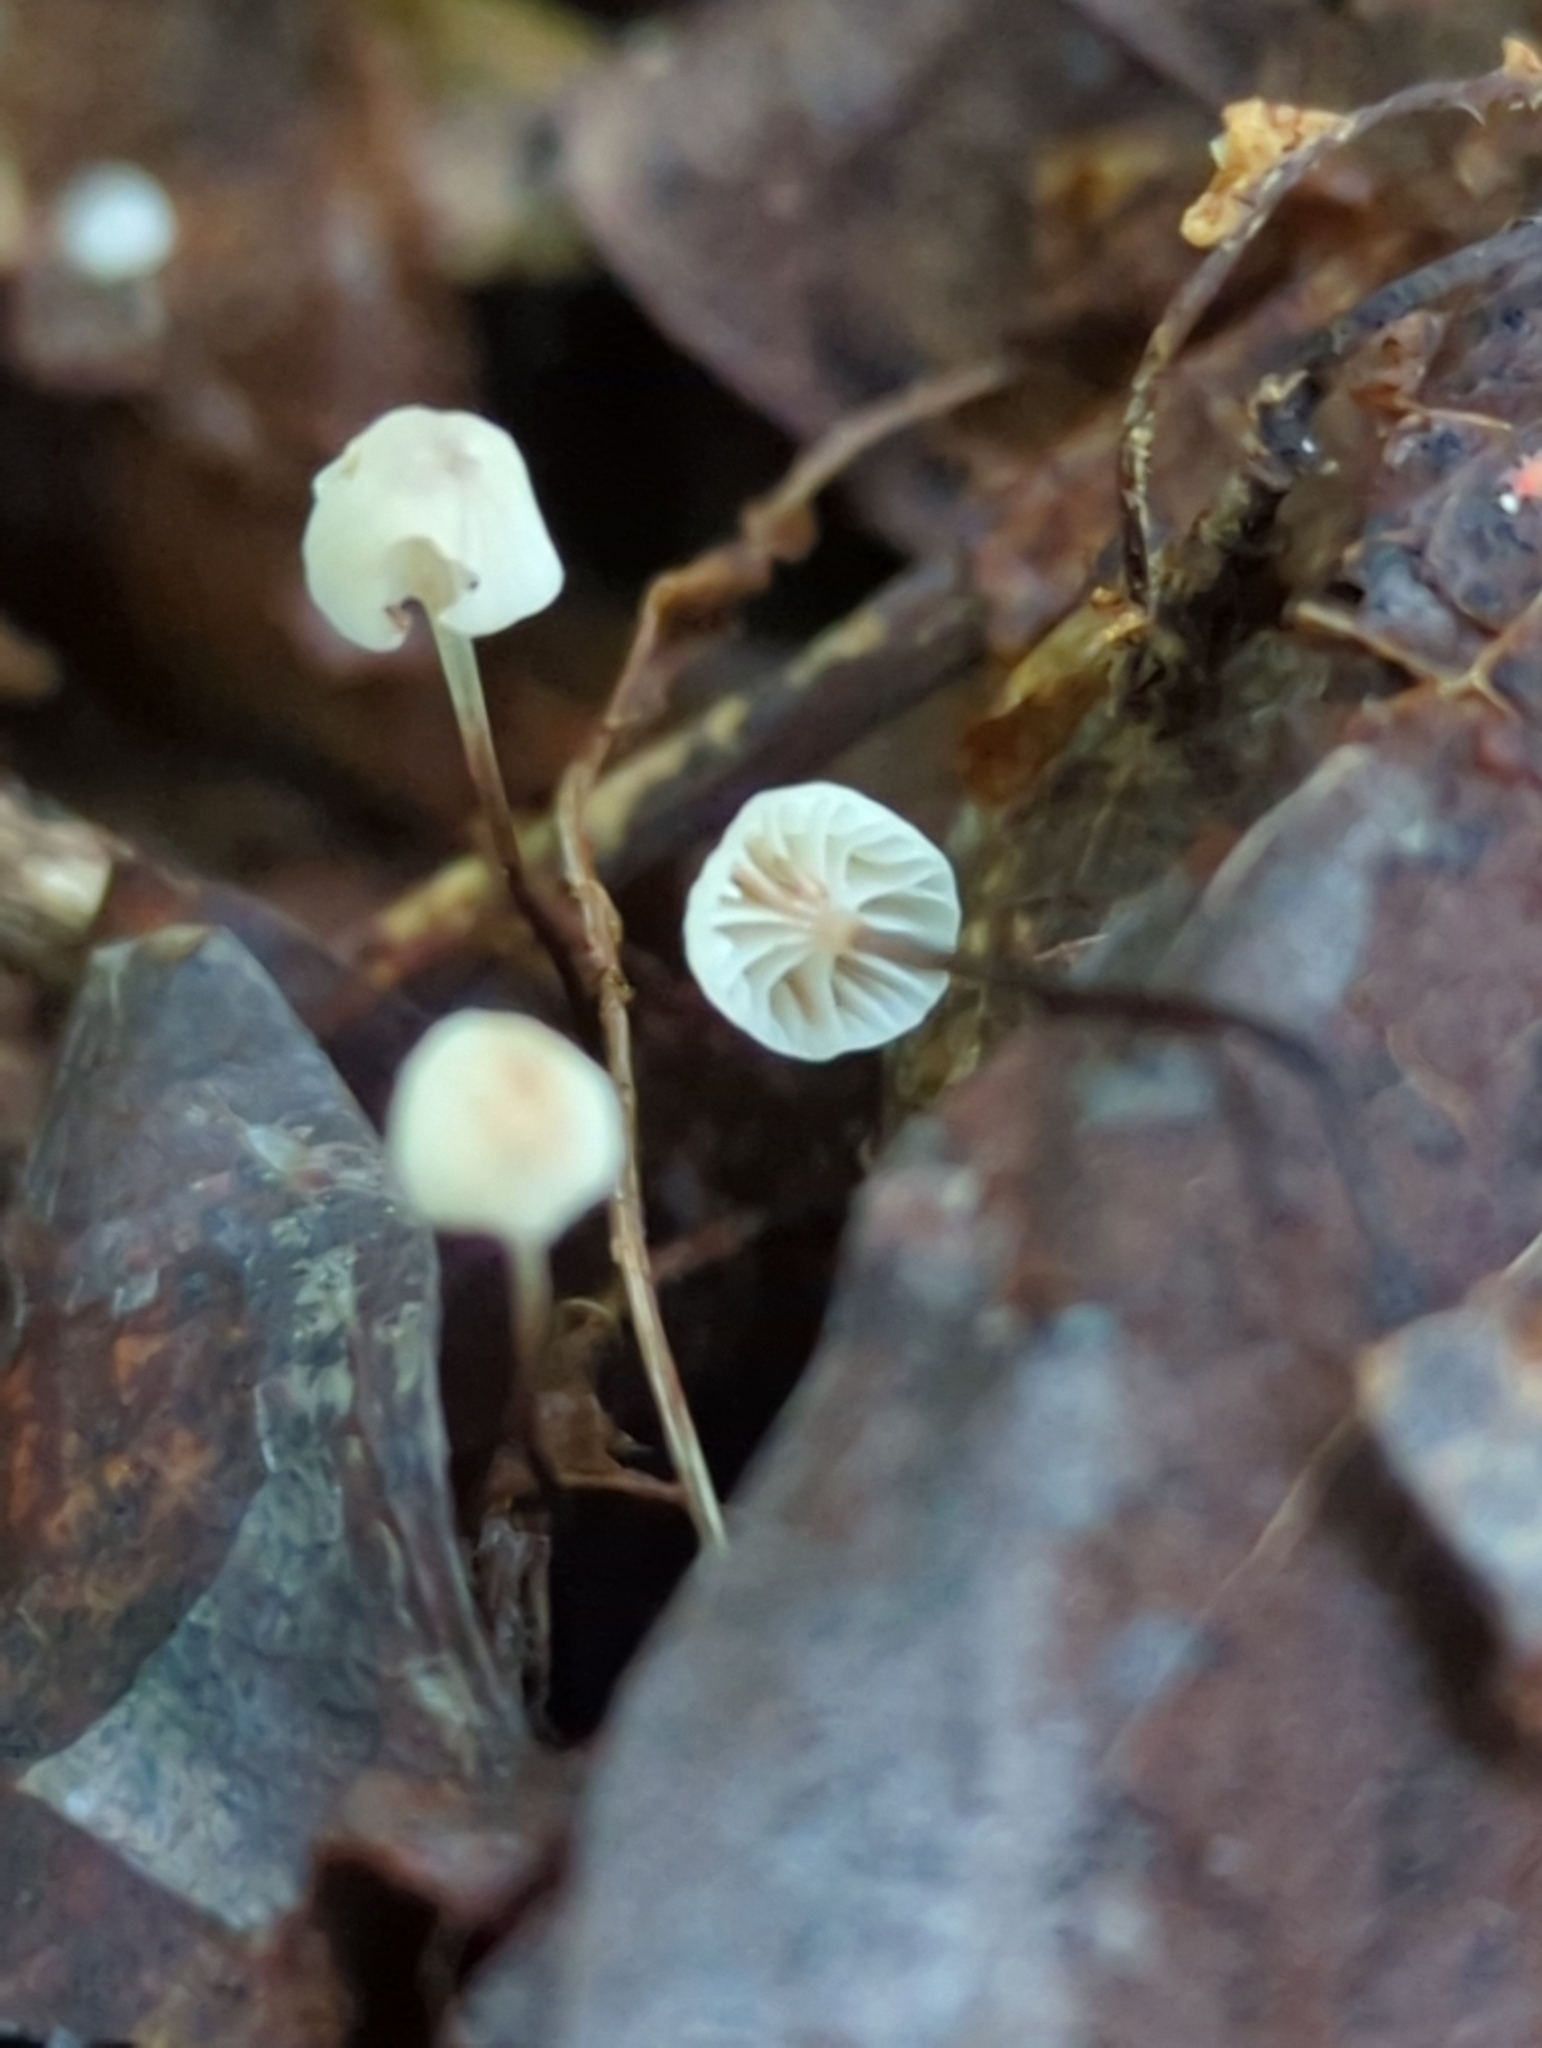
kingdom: Fungi
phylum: Basidiomycota
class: Agaricomycetes
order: Agaricales
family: Mycenaceae
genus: Mycena
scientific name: Mycena albiceps
